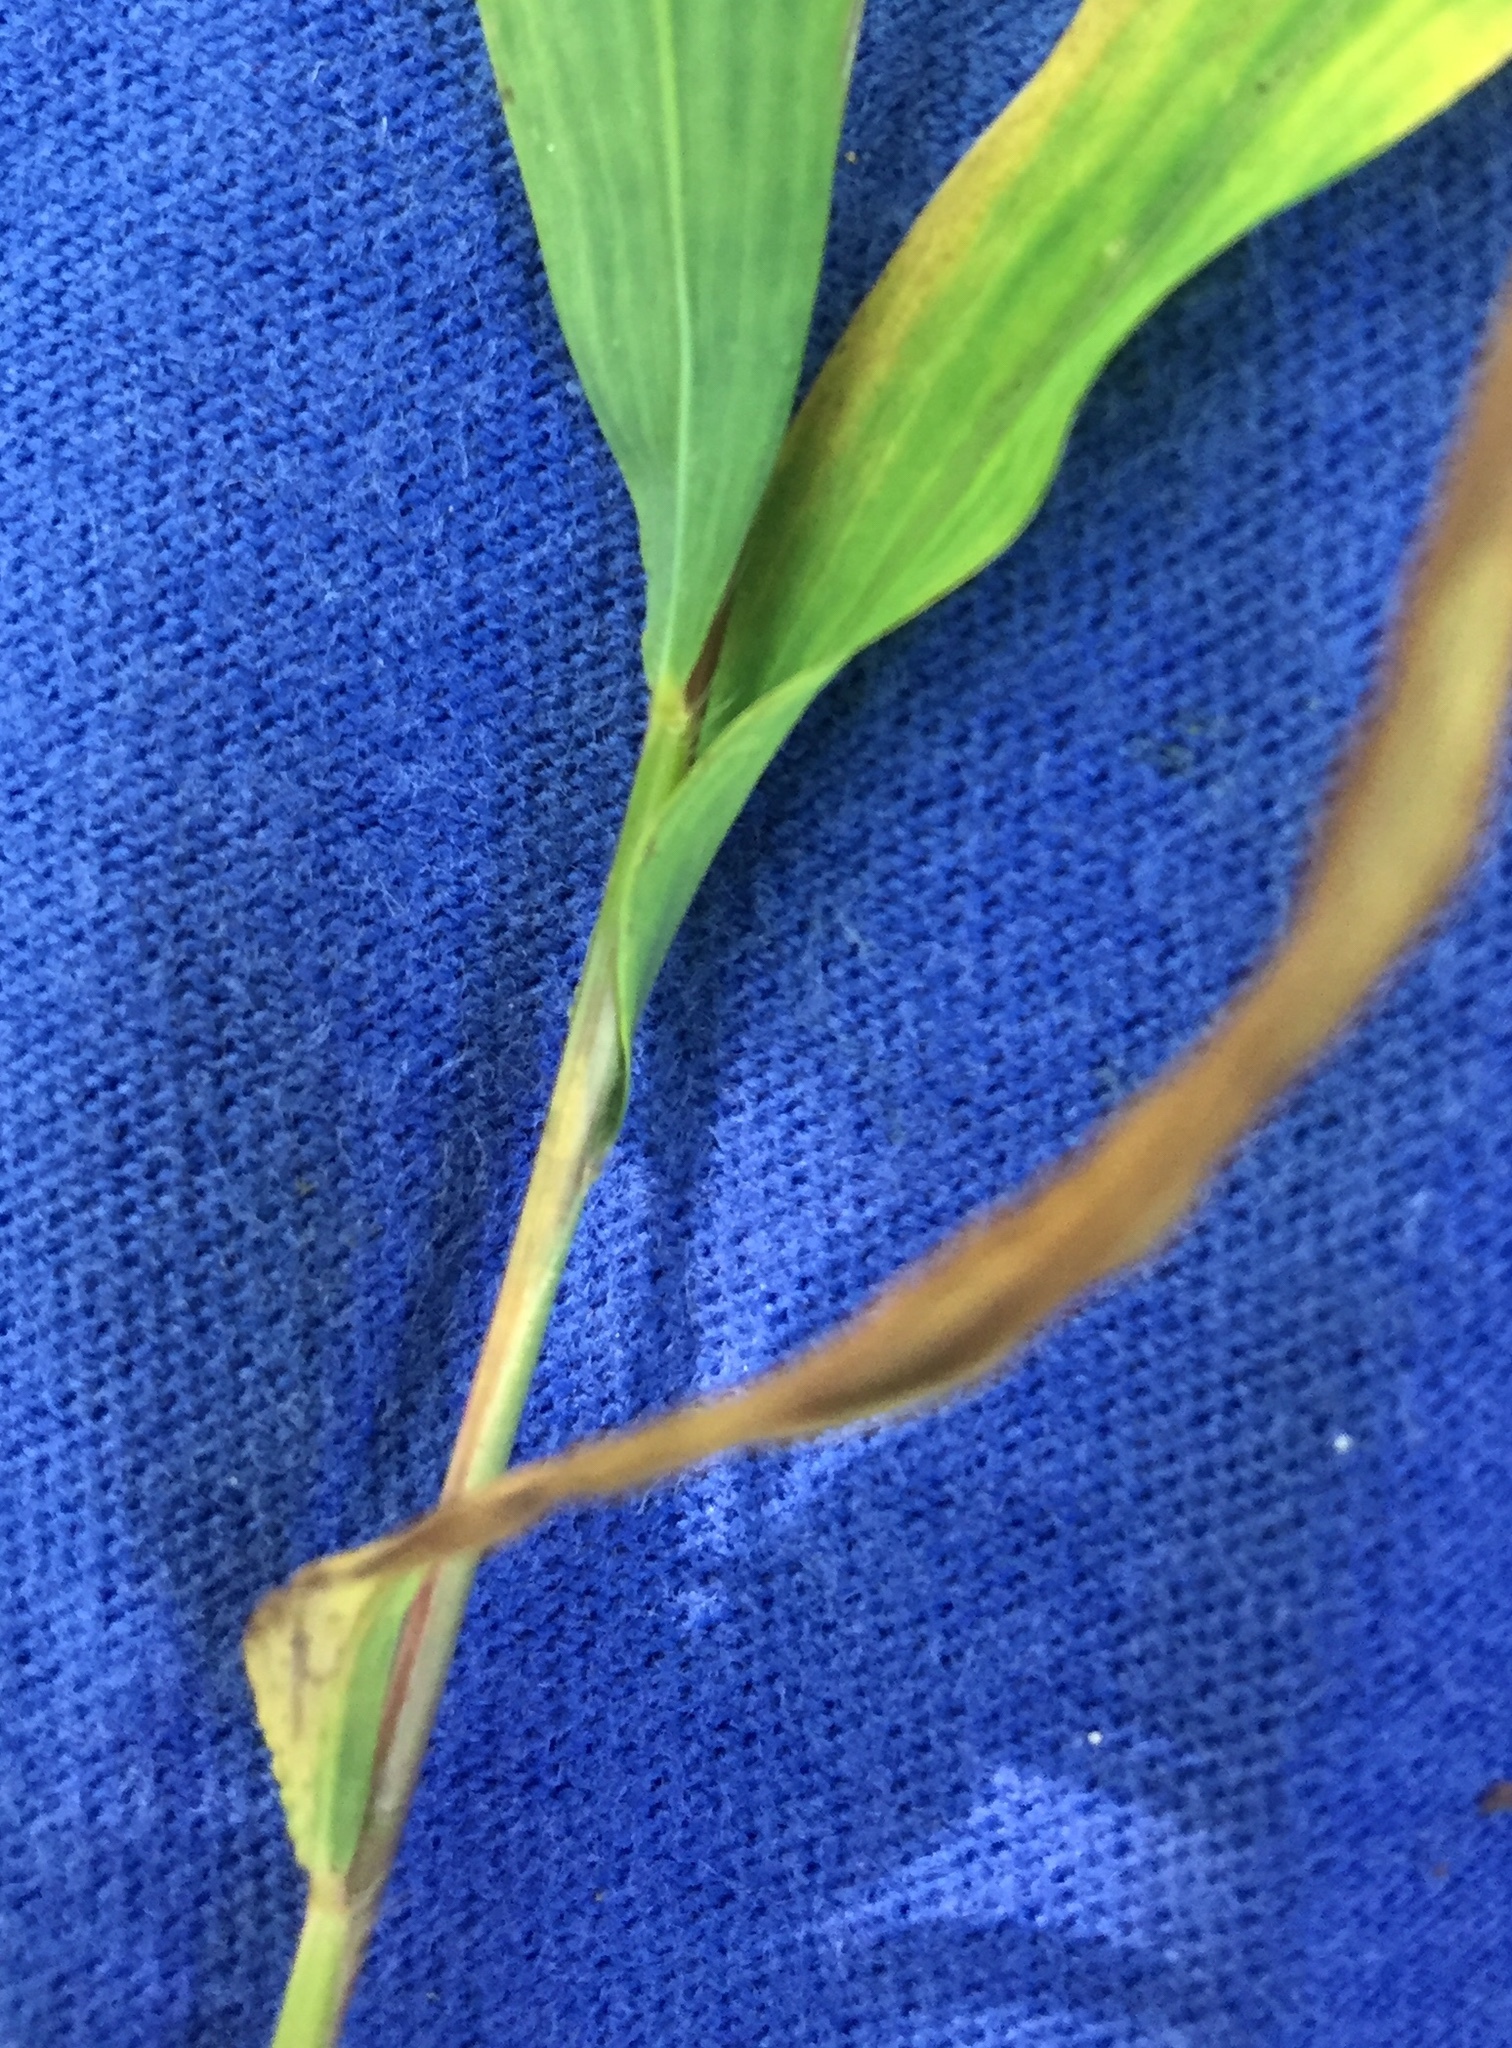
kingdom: Plantae
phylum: Tracheophyta
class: Liliopsida
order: Poales
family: Poaceae
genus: Microstegium
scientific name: Microstegium vimineum
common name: Japanese stiltgrass
